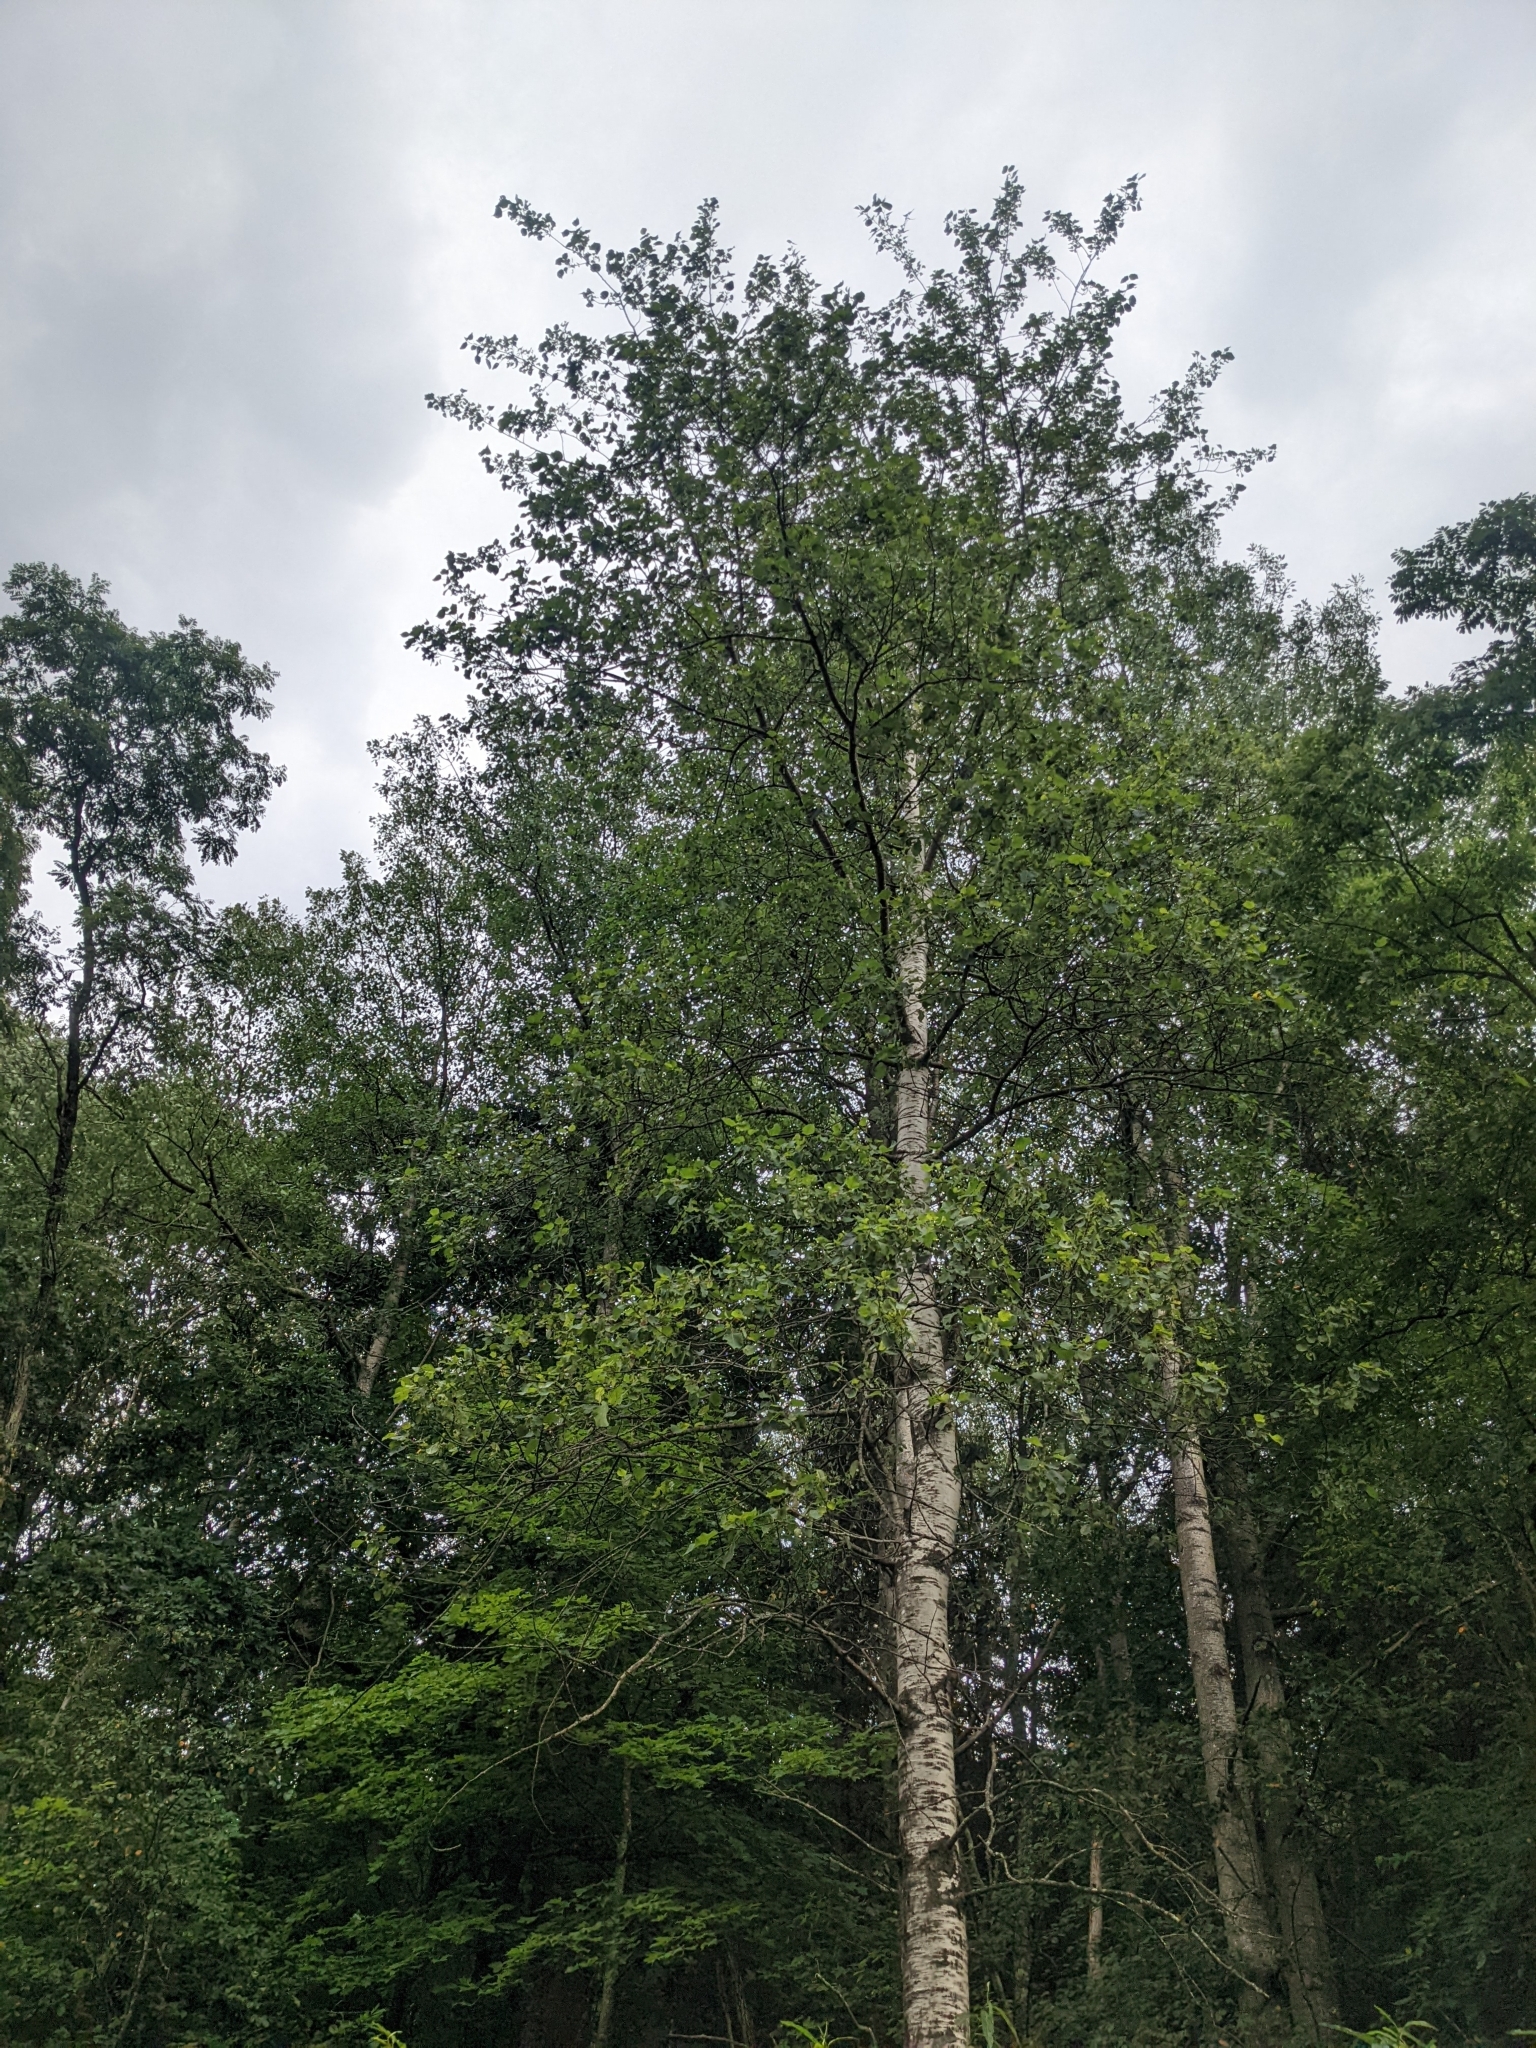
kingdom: Plantae
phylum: Tracheophyta
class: Magnoliopsida
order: Malpighiales
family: Salicaceae
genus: Populus
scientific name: Populus tremuloides
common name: Quaking aspen
